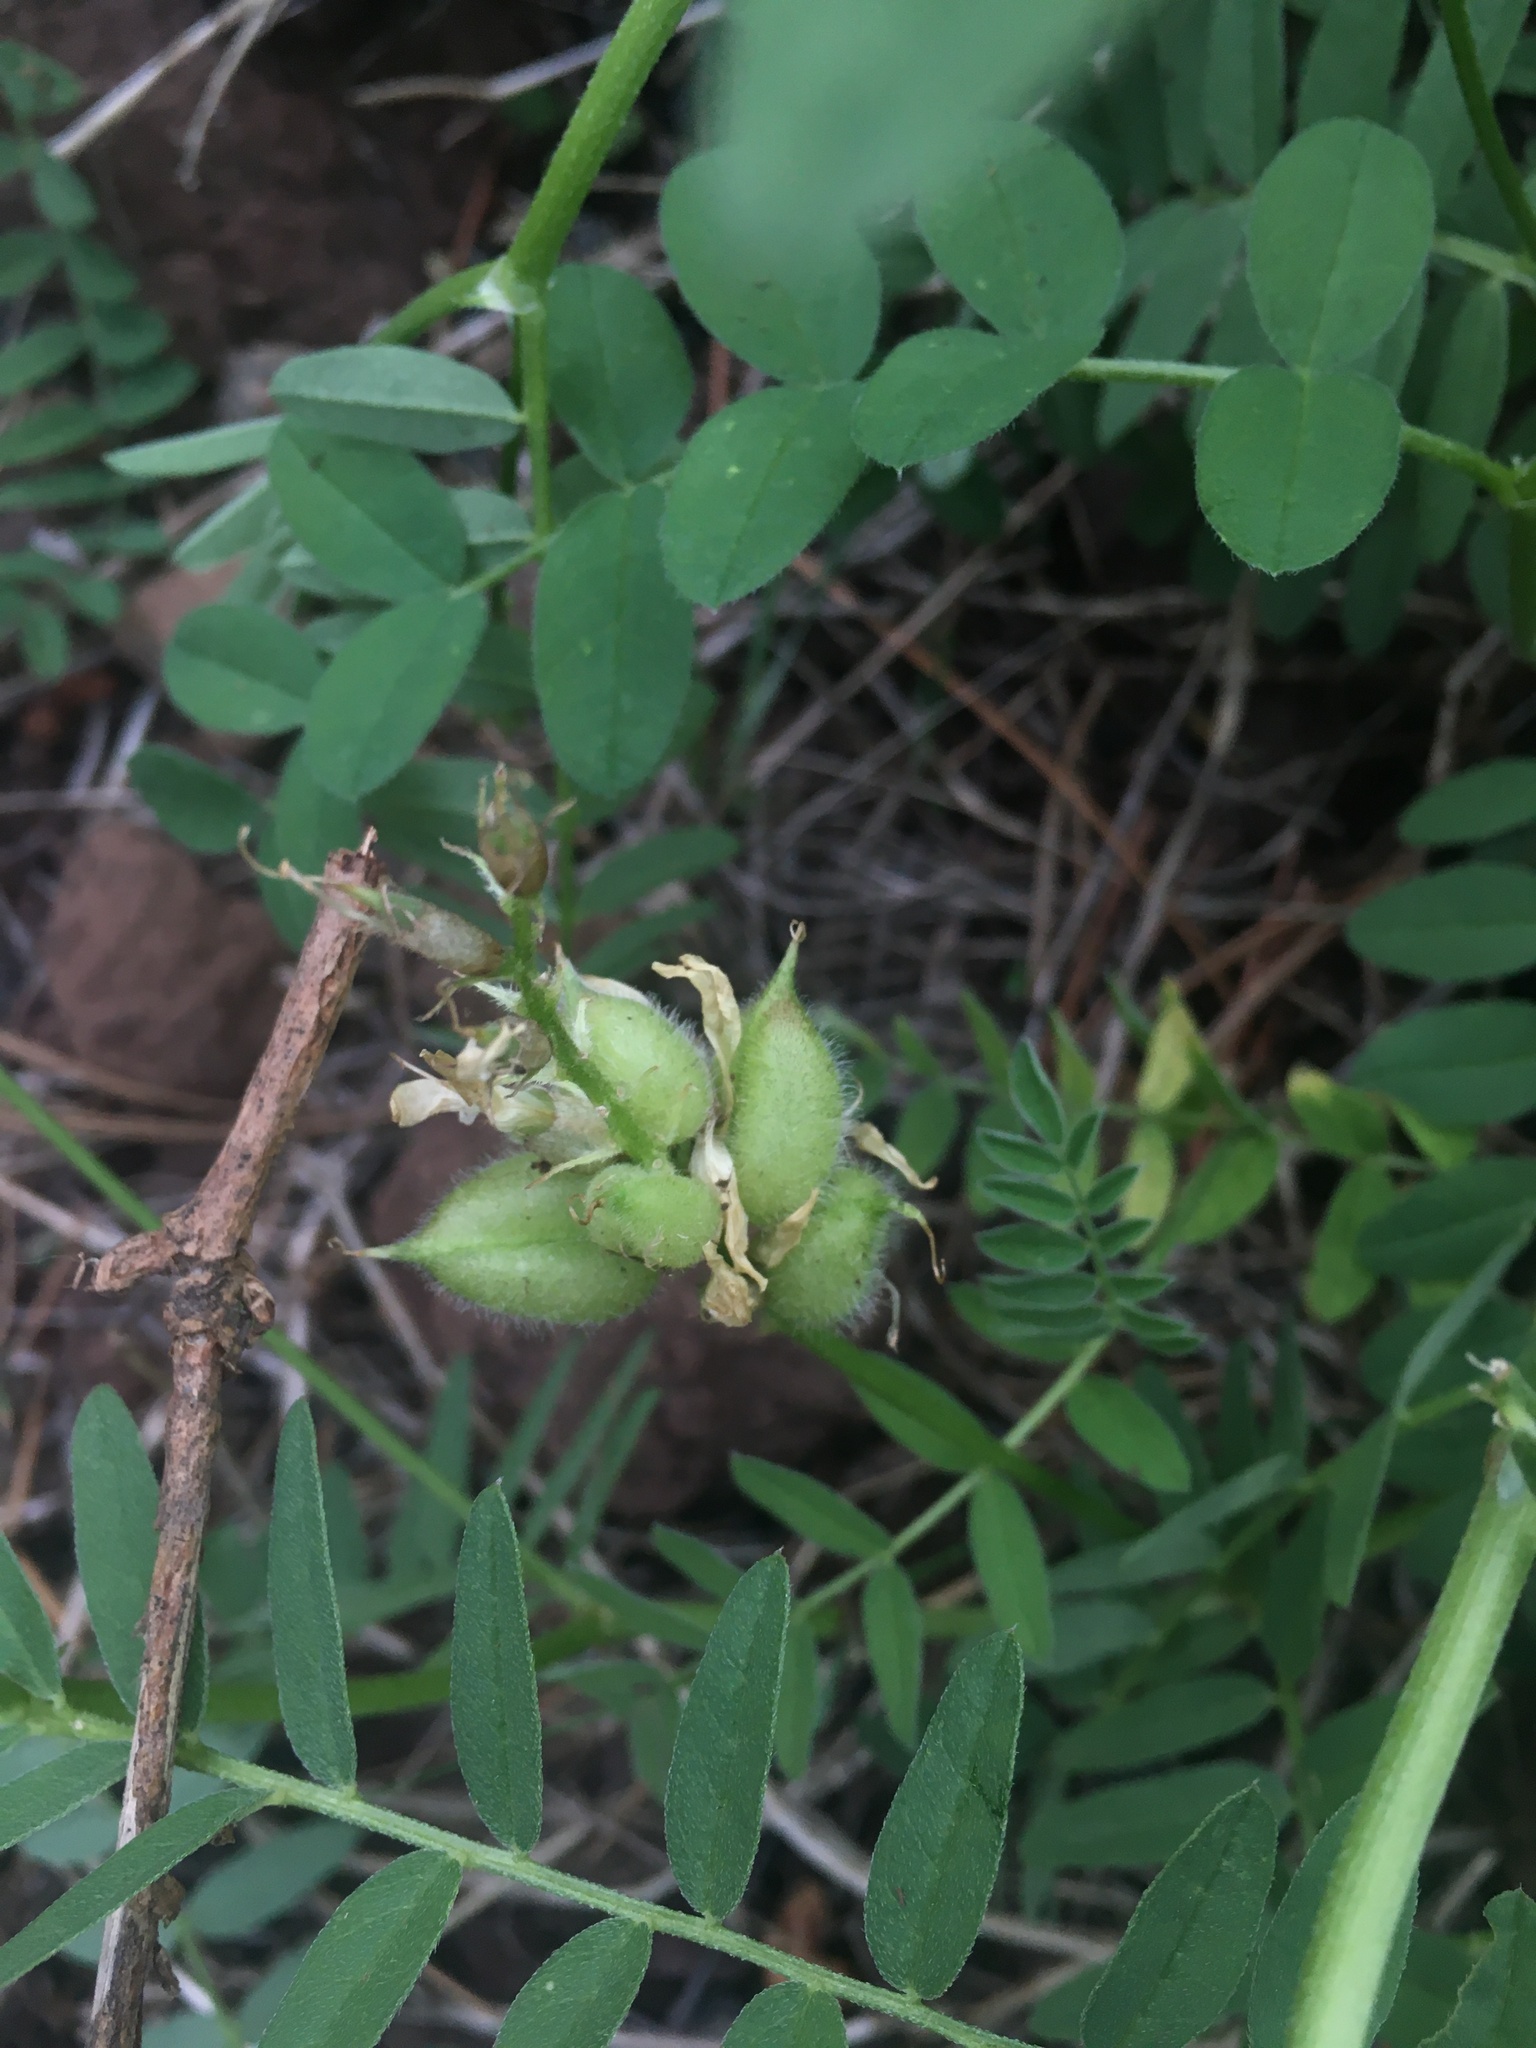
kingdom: Plantae
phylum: Tracheophyta
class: Magnoliopsida
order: Fabales
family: Fabaceae
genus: Astragalus
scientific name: Astragalus cicer
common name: Chick-pea milk-vetch
